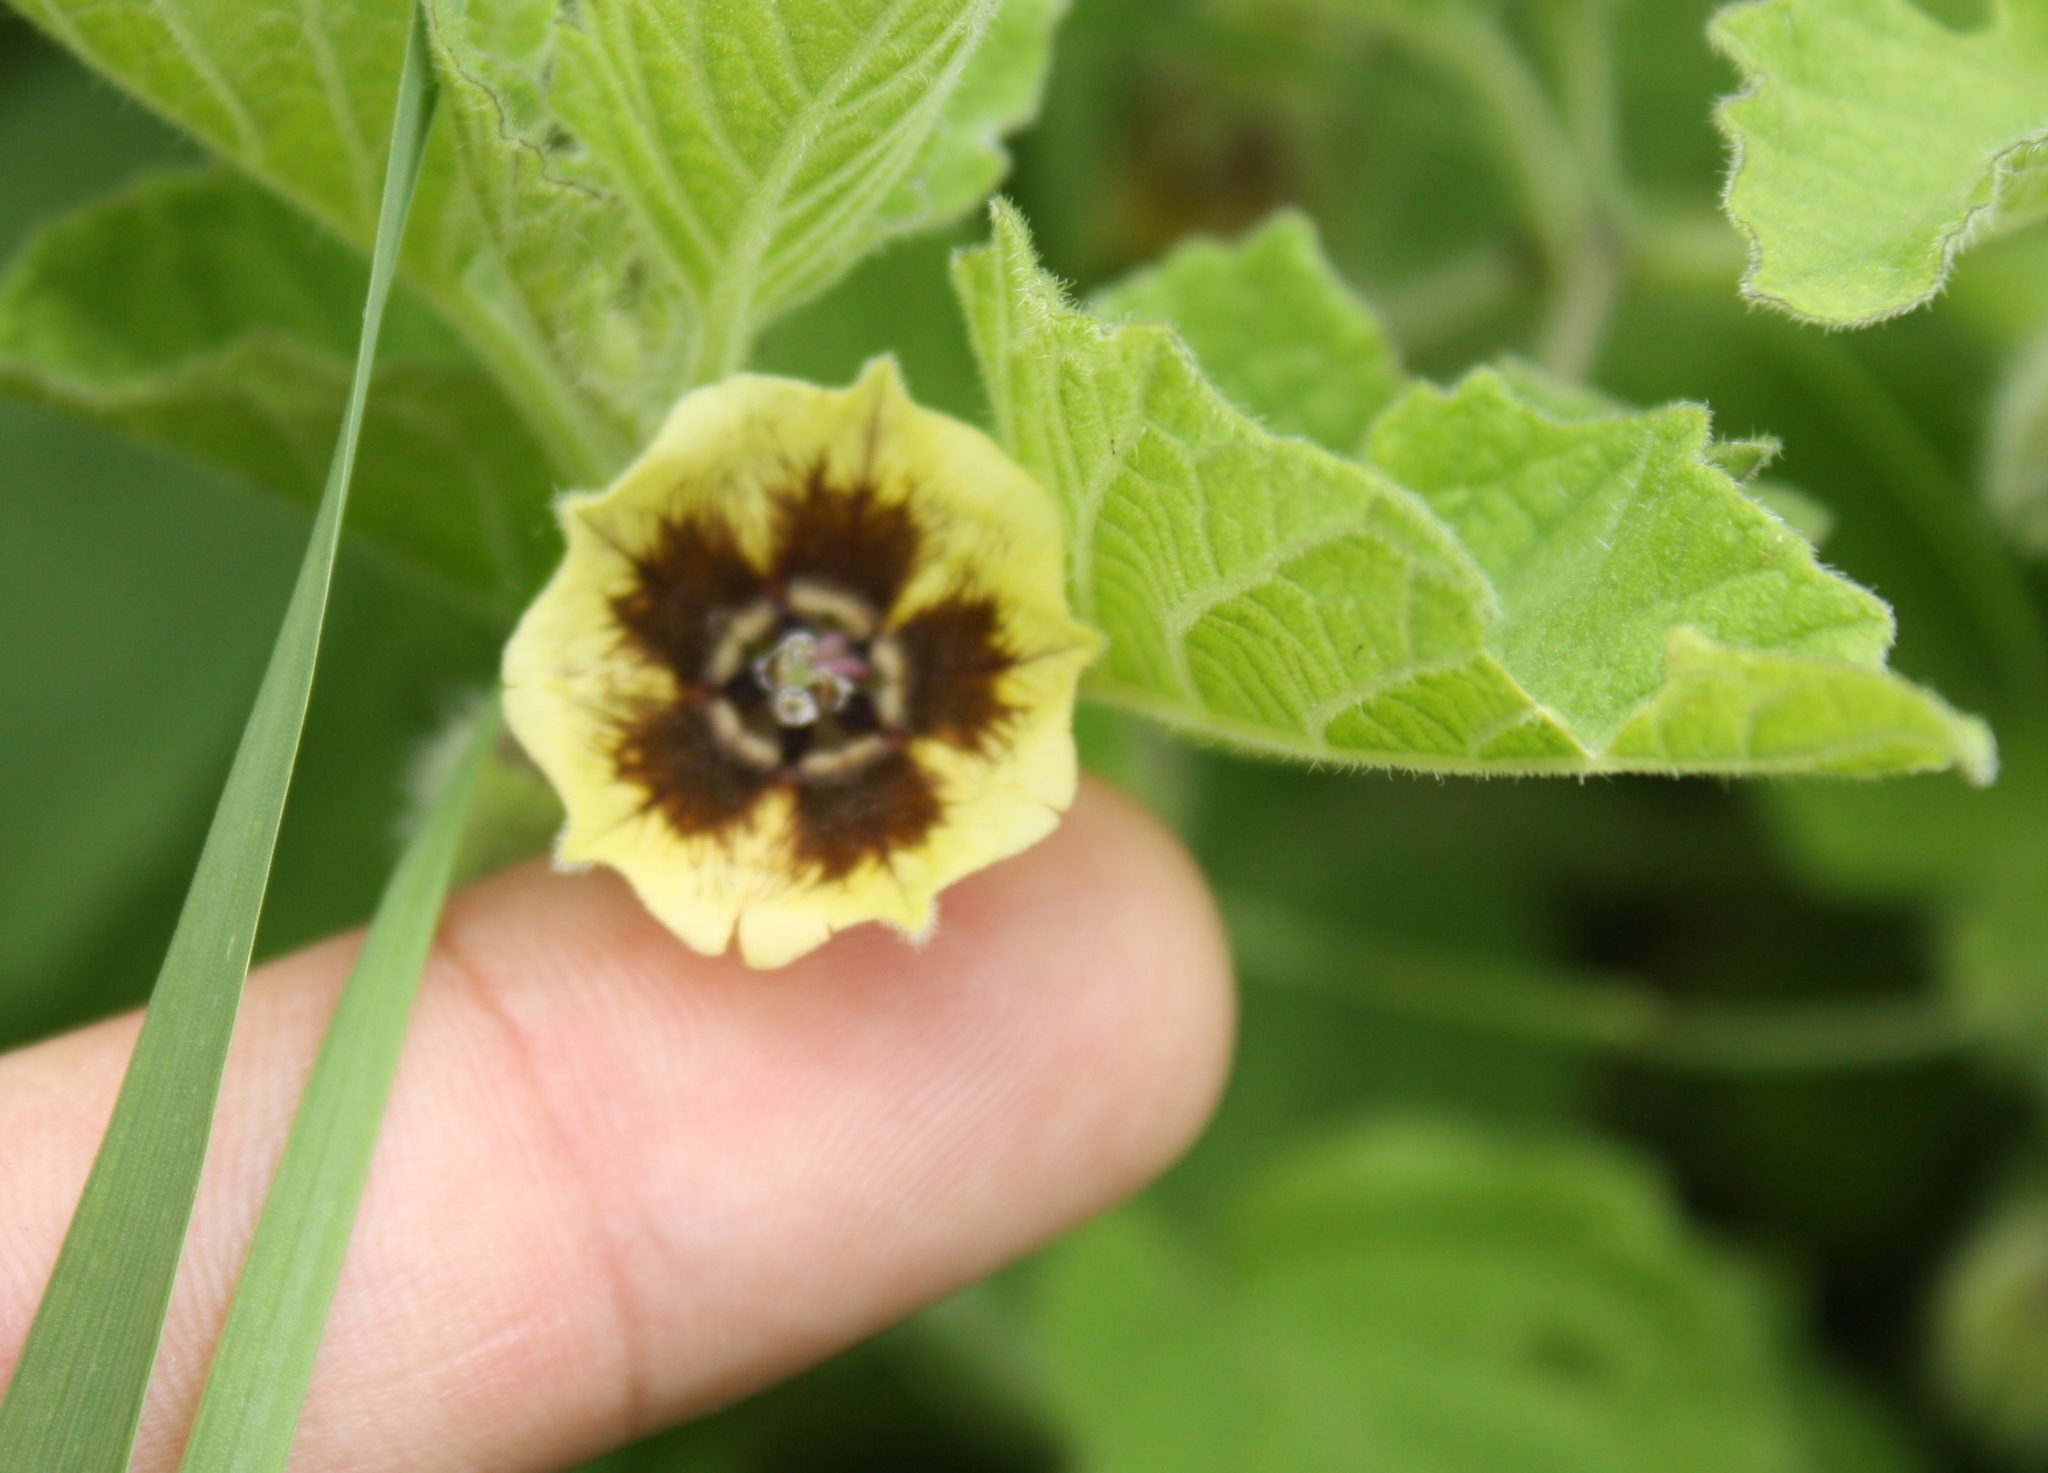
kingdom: Plantae
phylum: Tracheophyta
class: Magnoliopsida
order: Solanales
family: Solanaceae
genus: Physalis
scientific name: Physalis heterophylla
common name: Clammy ground-cherry
